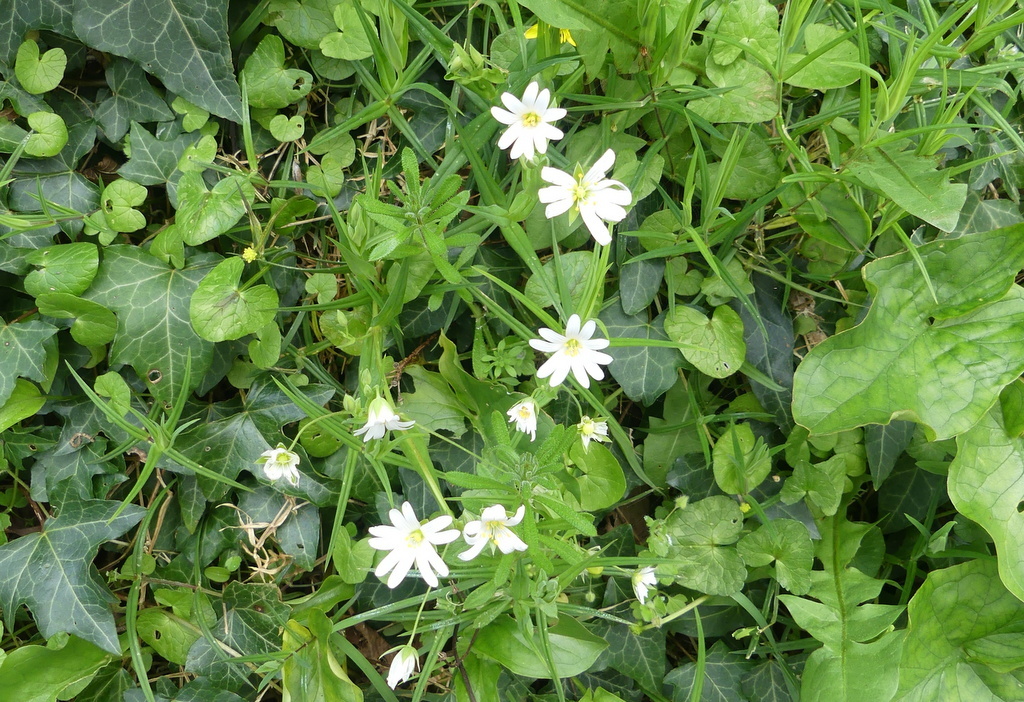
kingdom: Plantae
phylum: Tracheophyta
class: Magnoliopsida
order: Caryophyllales
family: Caryophyllaceae
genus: Rabelera
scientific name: Rabelera holostea
